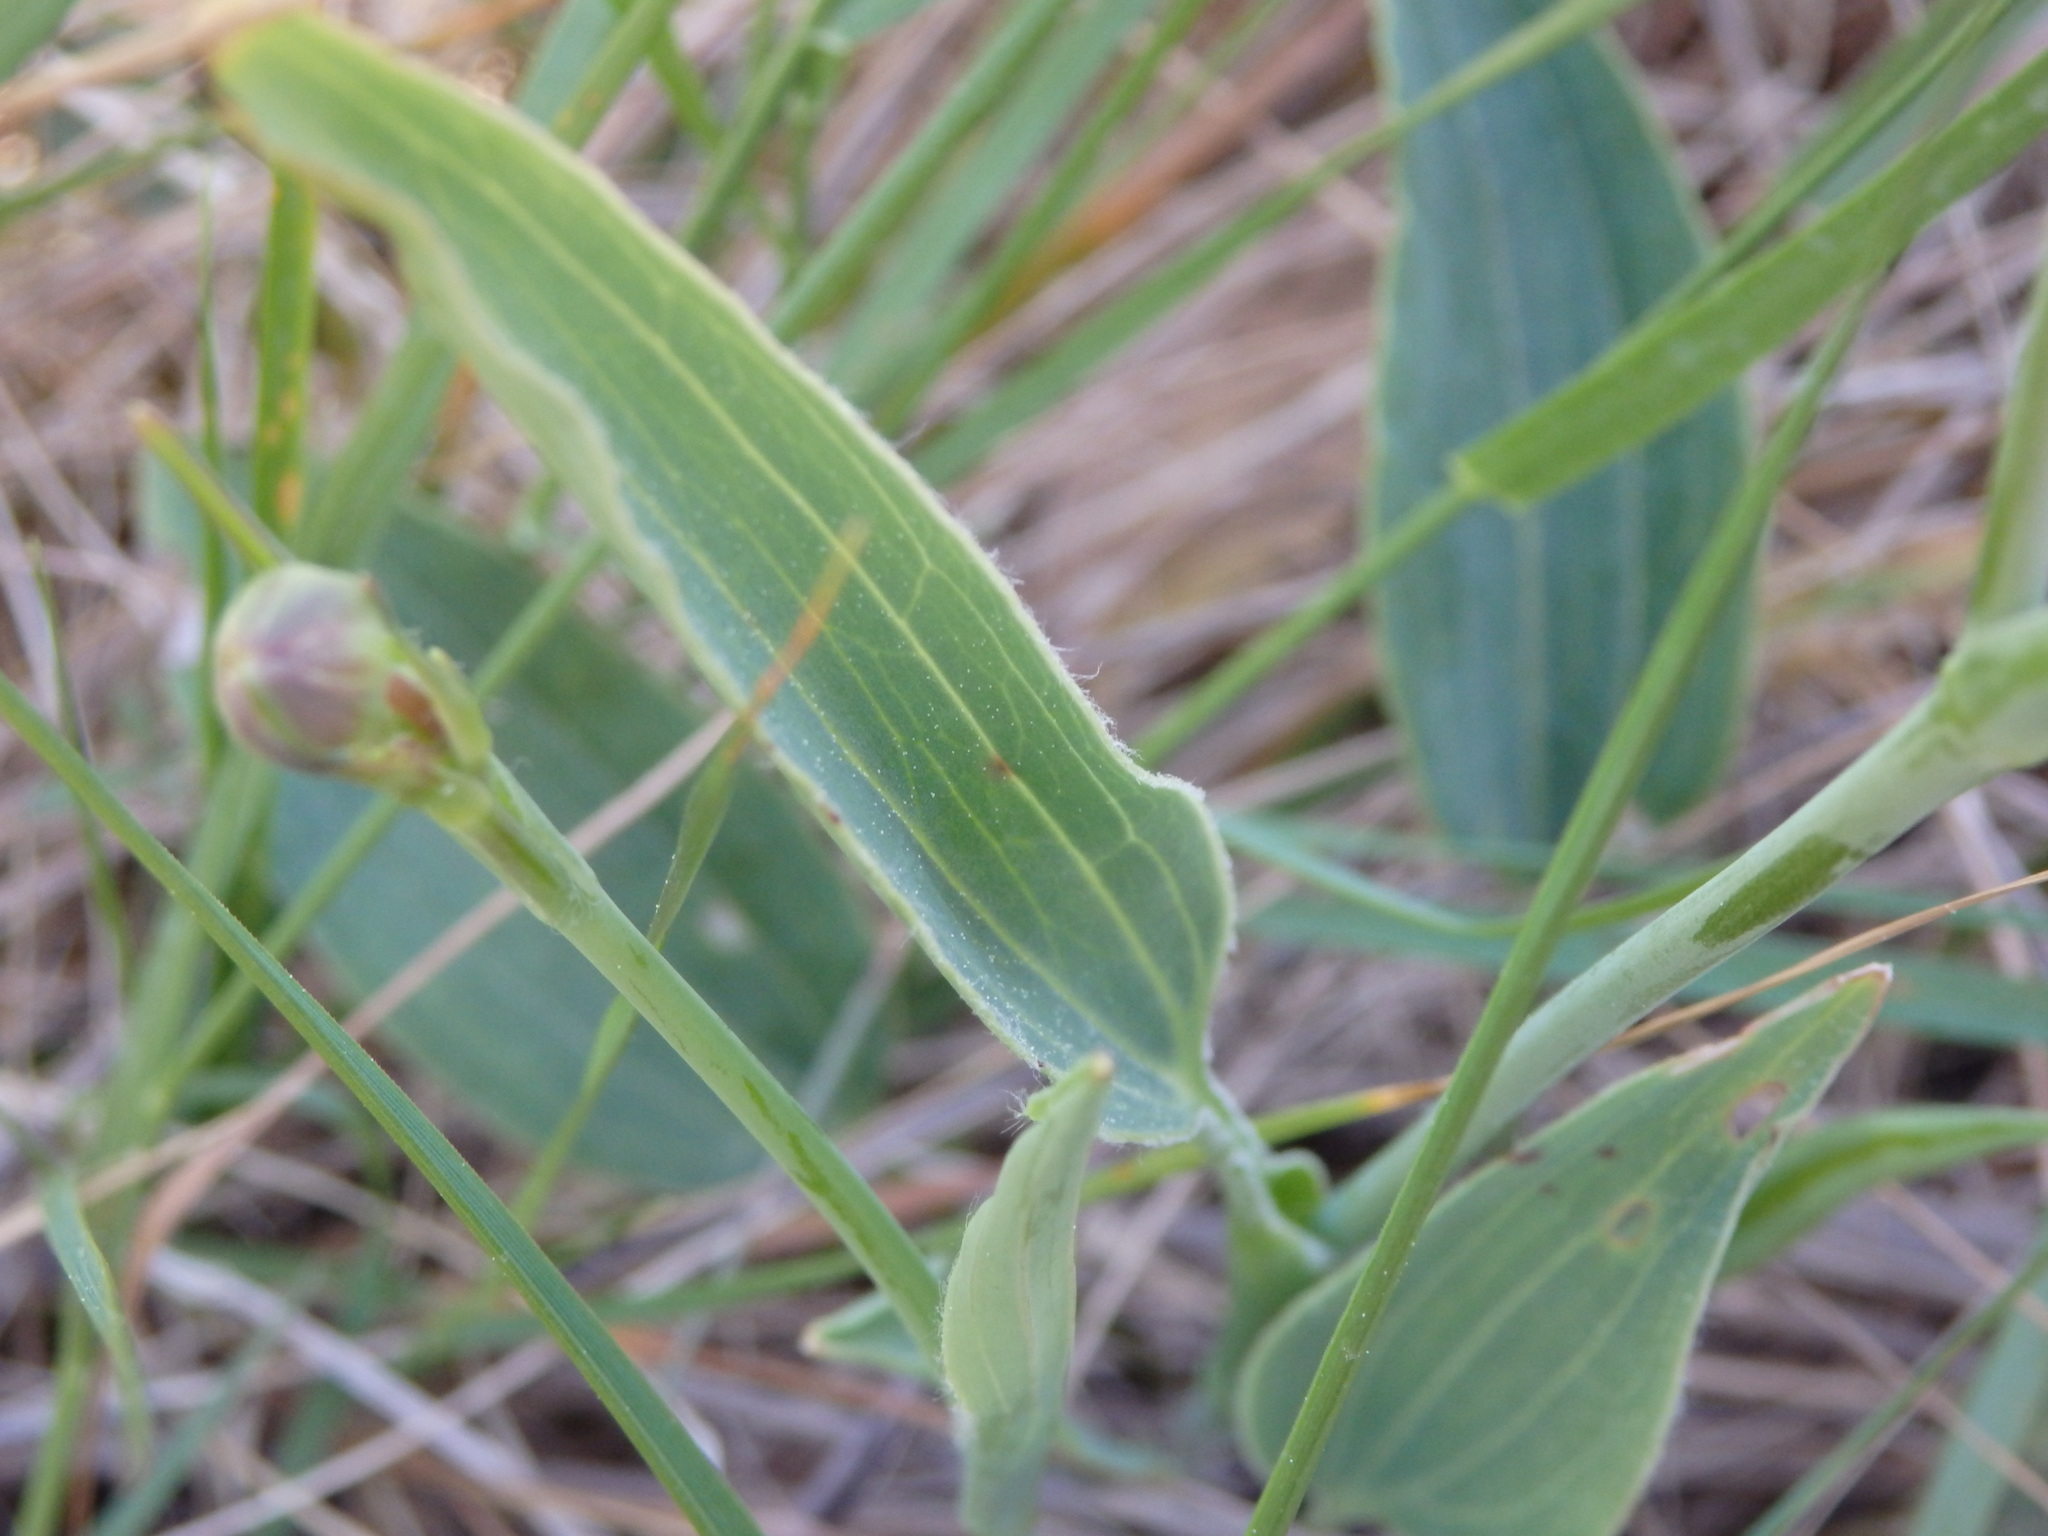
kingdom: Plantae
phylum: Tracheophyta
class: Magnoliopsida
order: Ranunculales
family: Ranunculaceae
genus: Ranunculus
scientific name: Ranunculus bupleuroides
